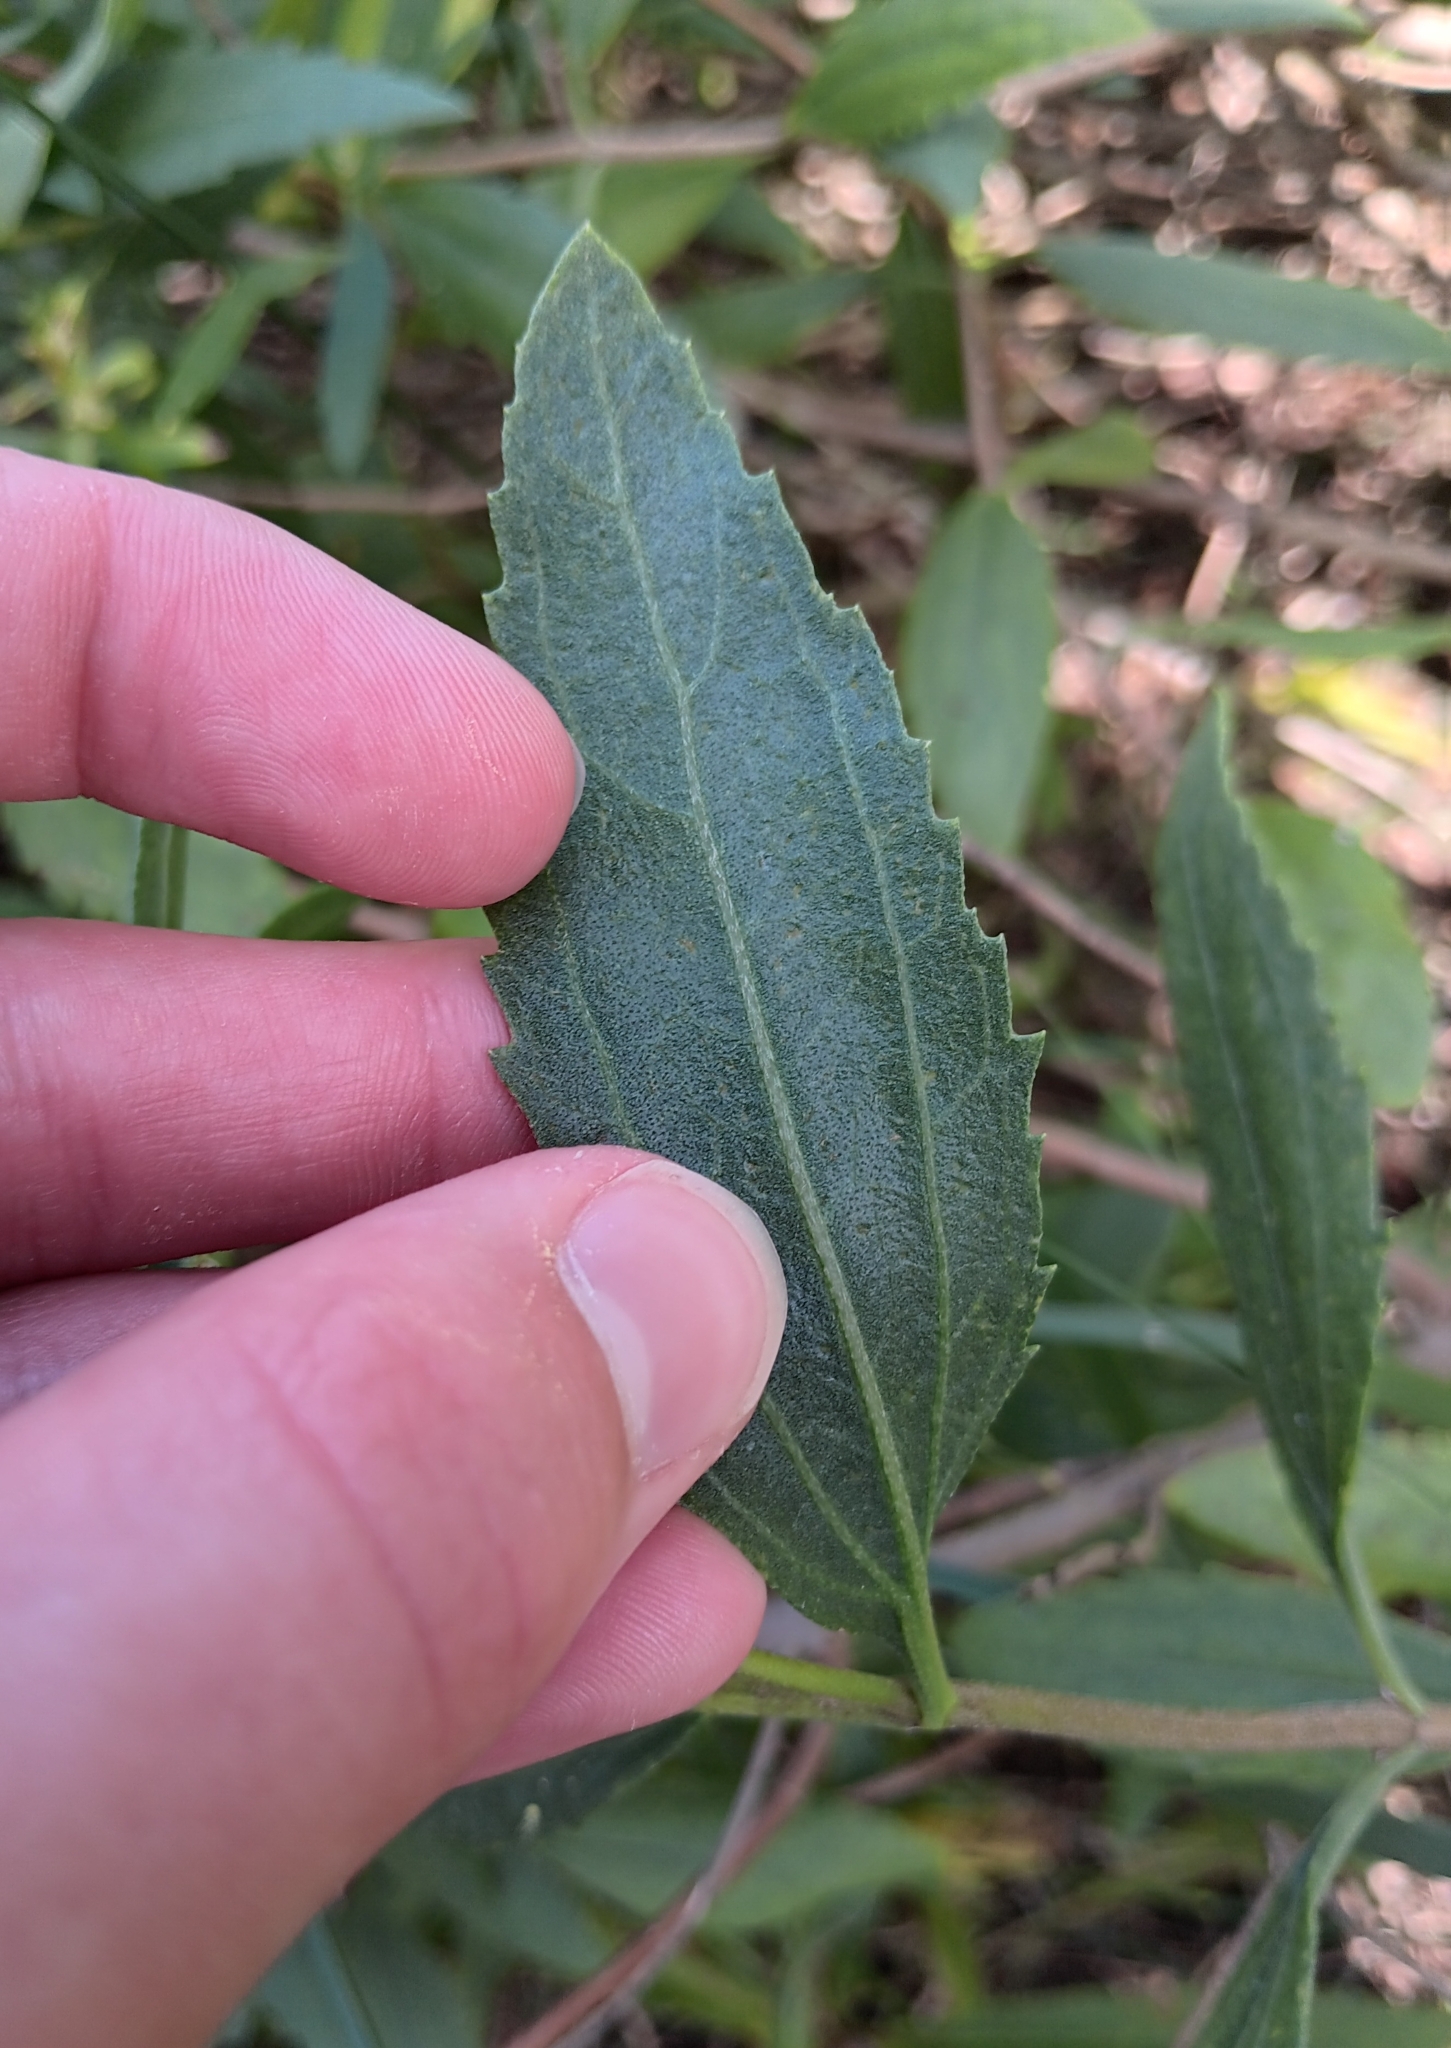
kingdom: Plantae
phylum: Tracheophyta
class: Magnoliopsida
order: Asterales
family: Asteraceae
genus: Iva
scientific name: Iva frutescens
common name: Big-leaved marsh-elder
